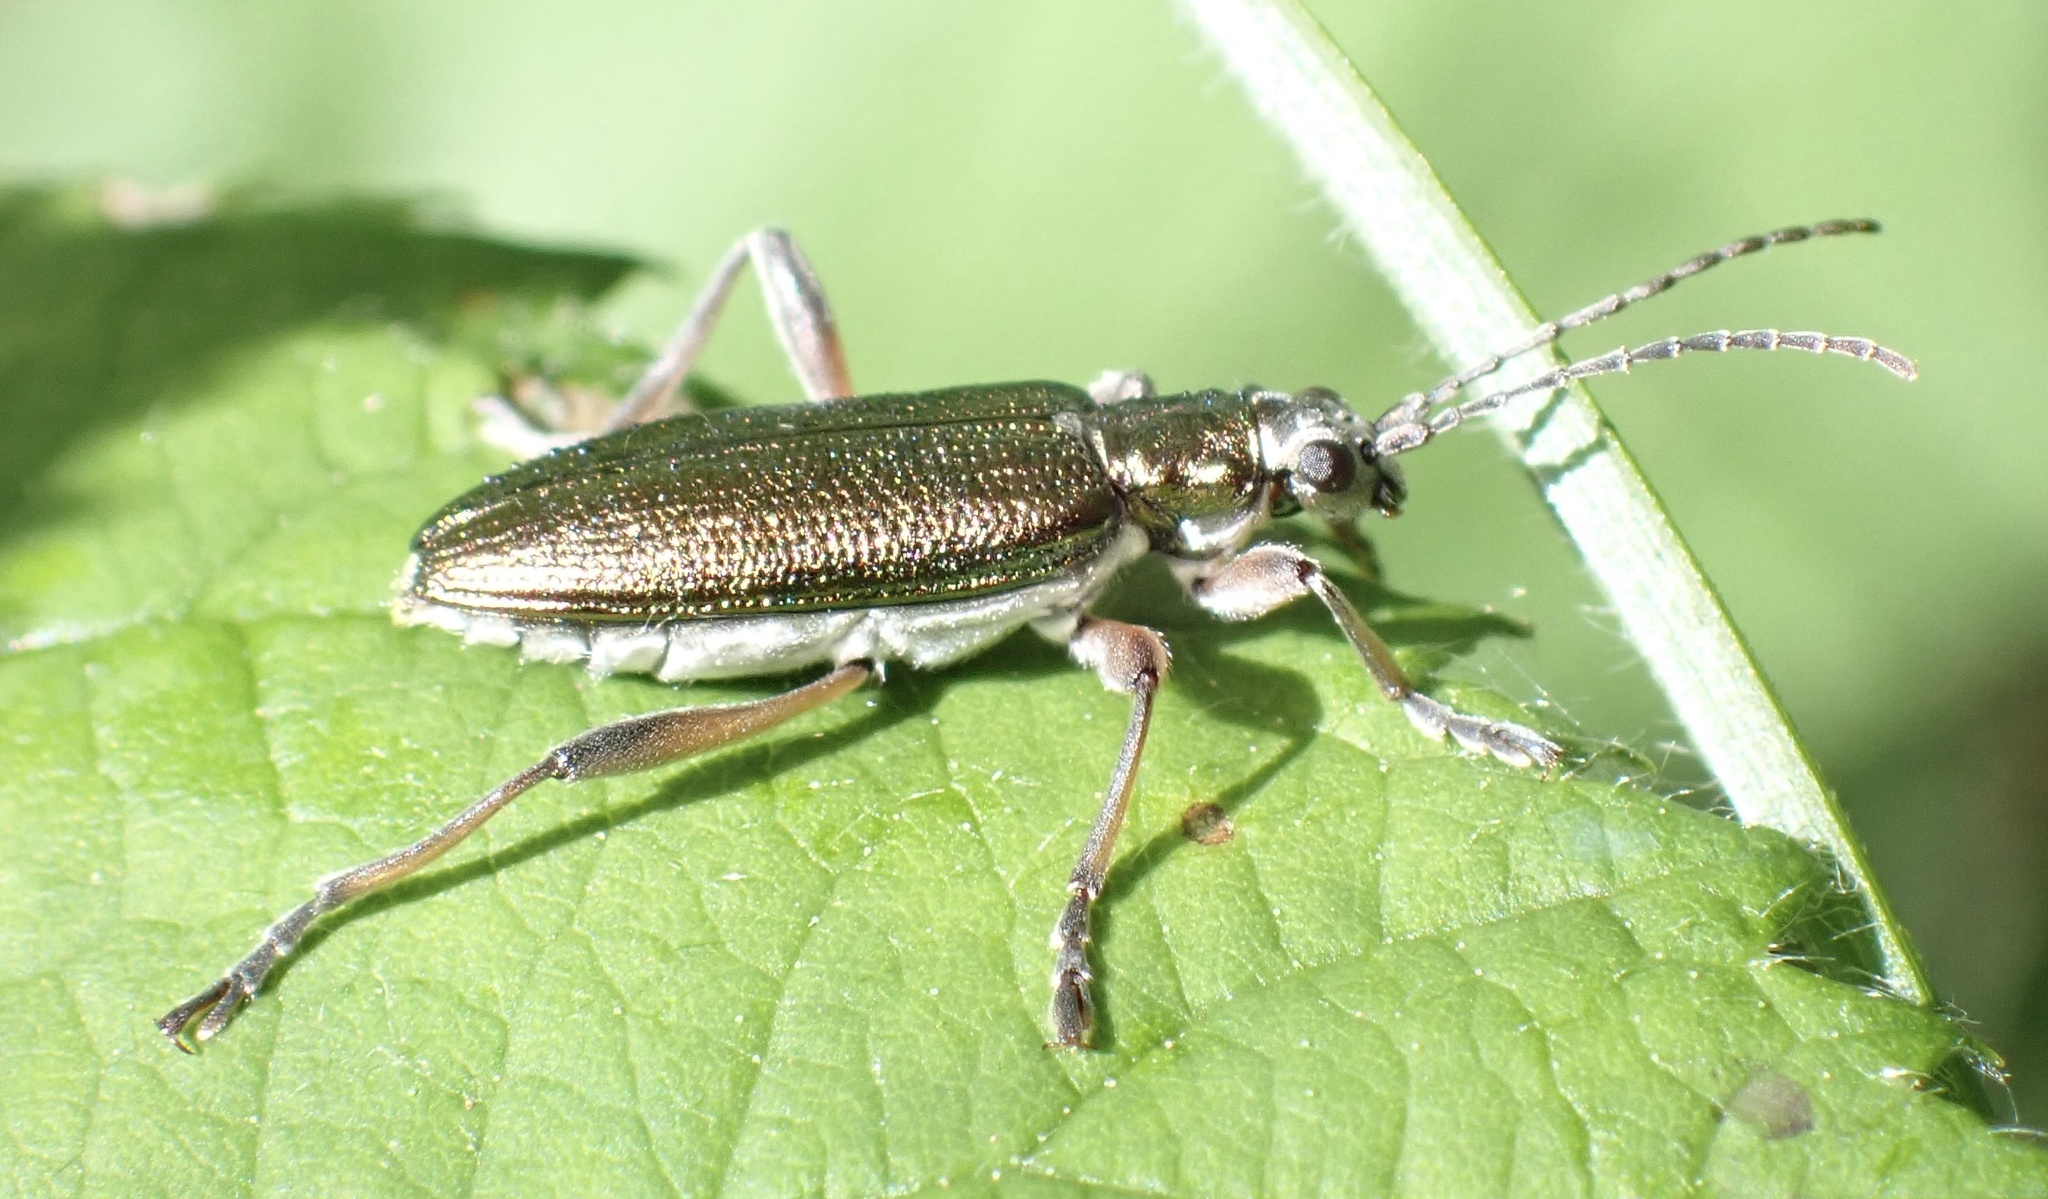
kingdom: Animalia
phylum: Arthropoda
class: Insecta
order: Coleoptera
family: Chrysomelidae
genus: Donacia
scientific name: Donacia clavipes
